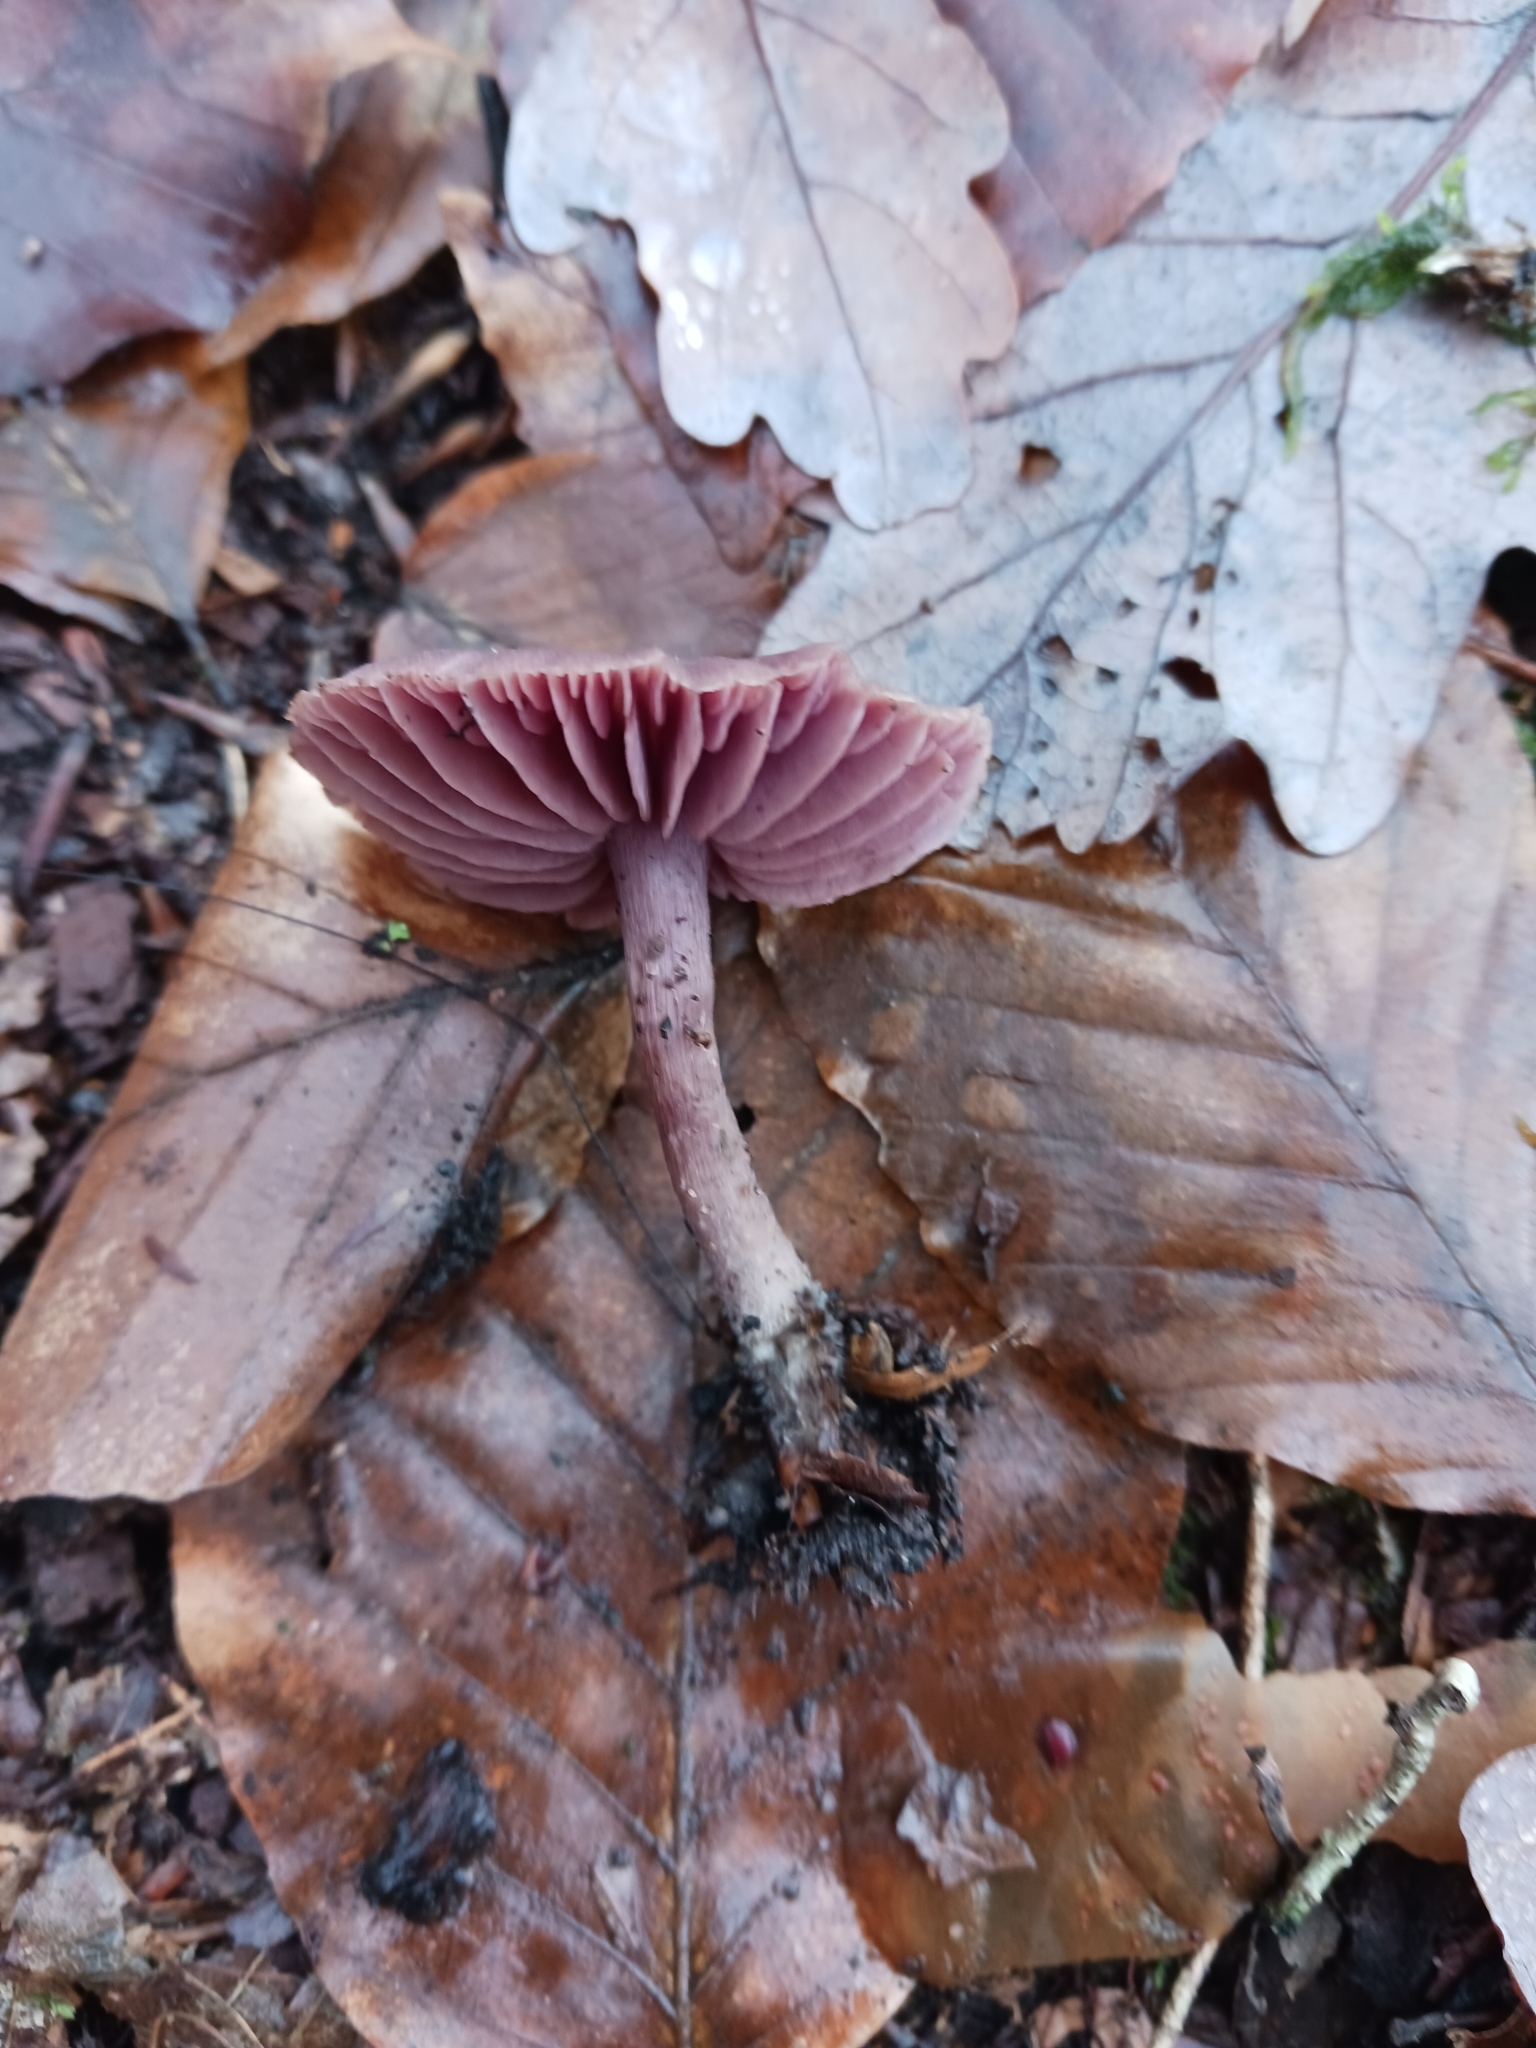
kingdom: Fungi
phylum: Basidiomycota
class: Agaricomycetes
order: Agaricales
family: Hydnangiaceae
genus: Laccaria
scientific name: Laccaria amethystina
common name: Amethyst deceiver
